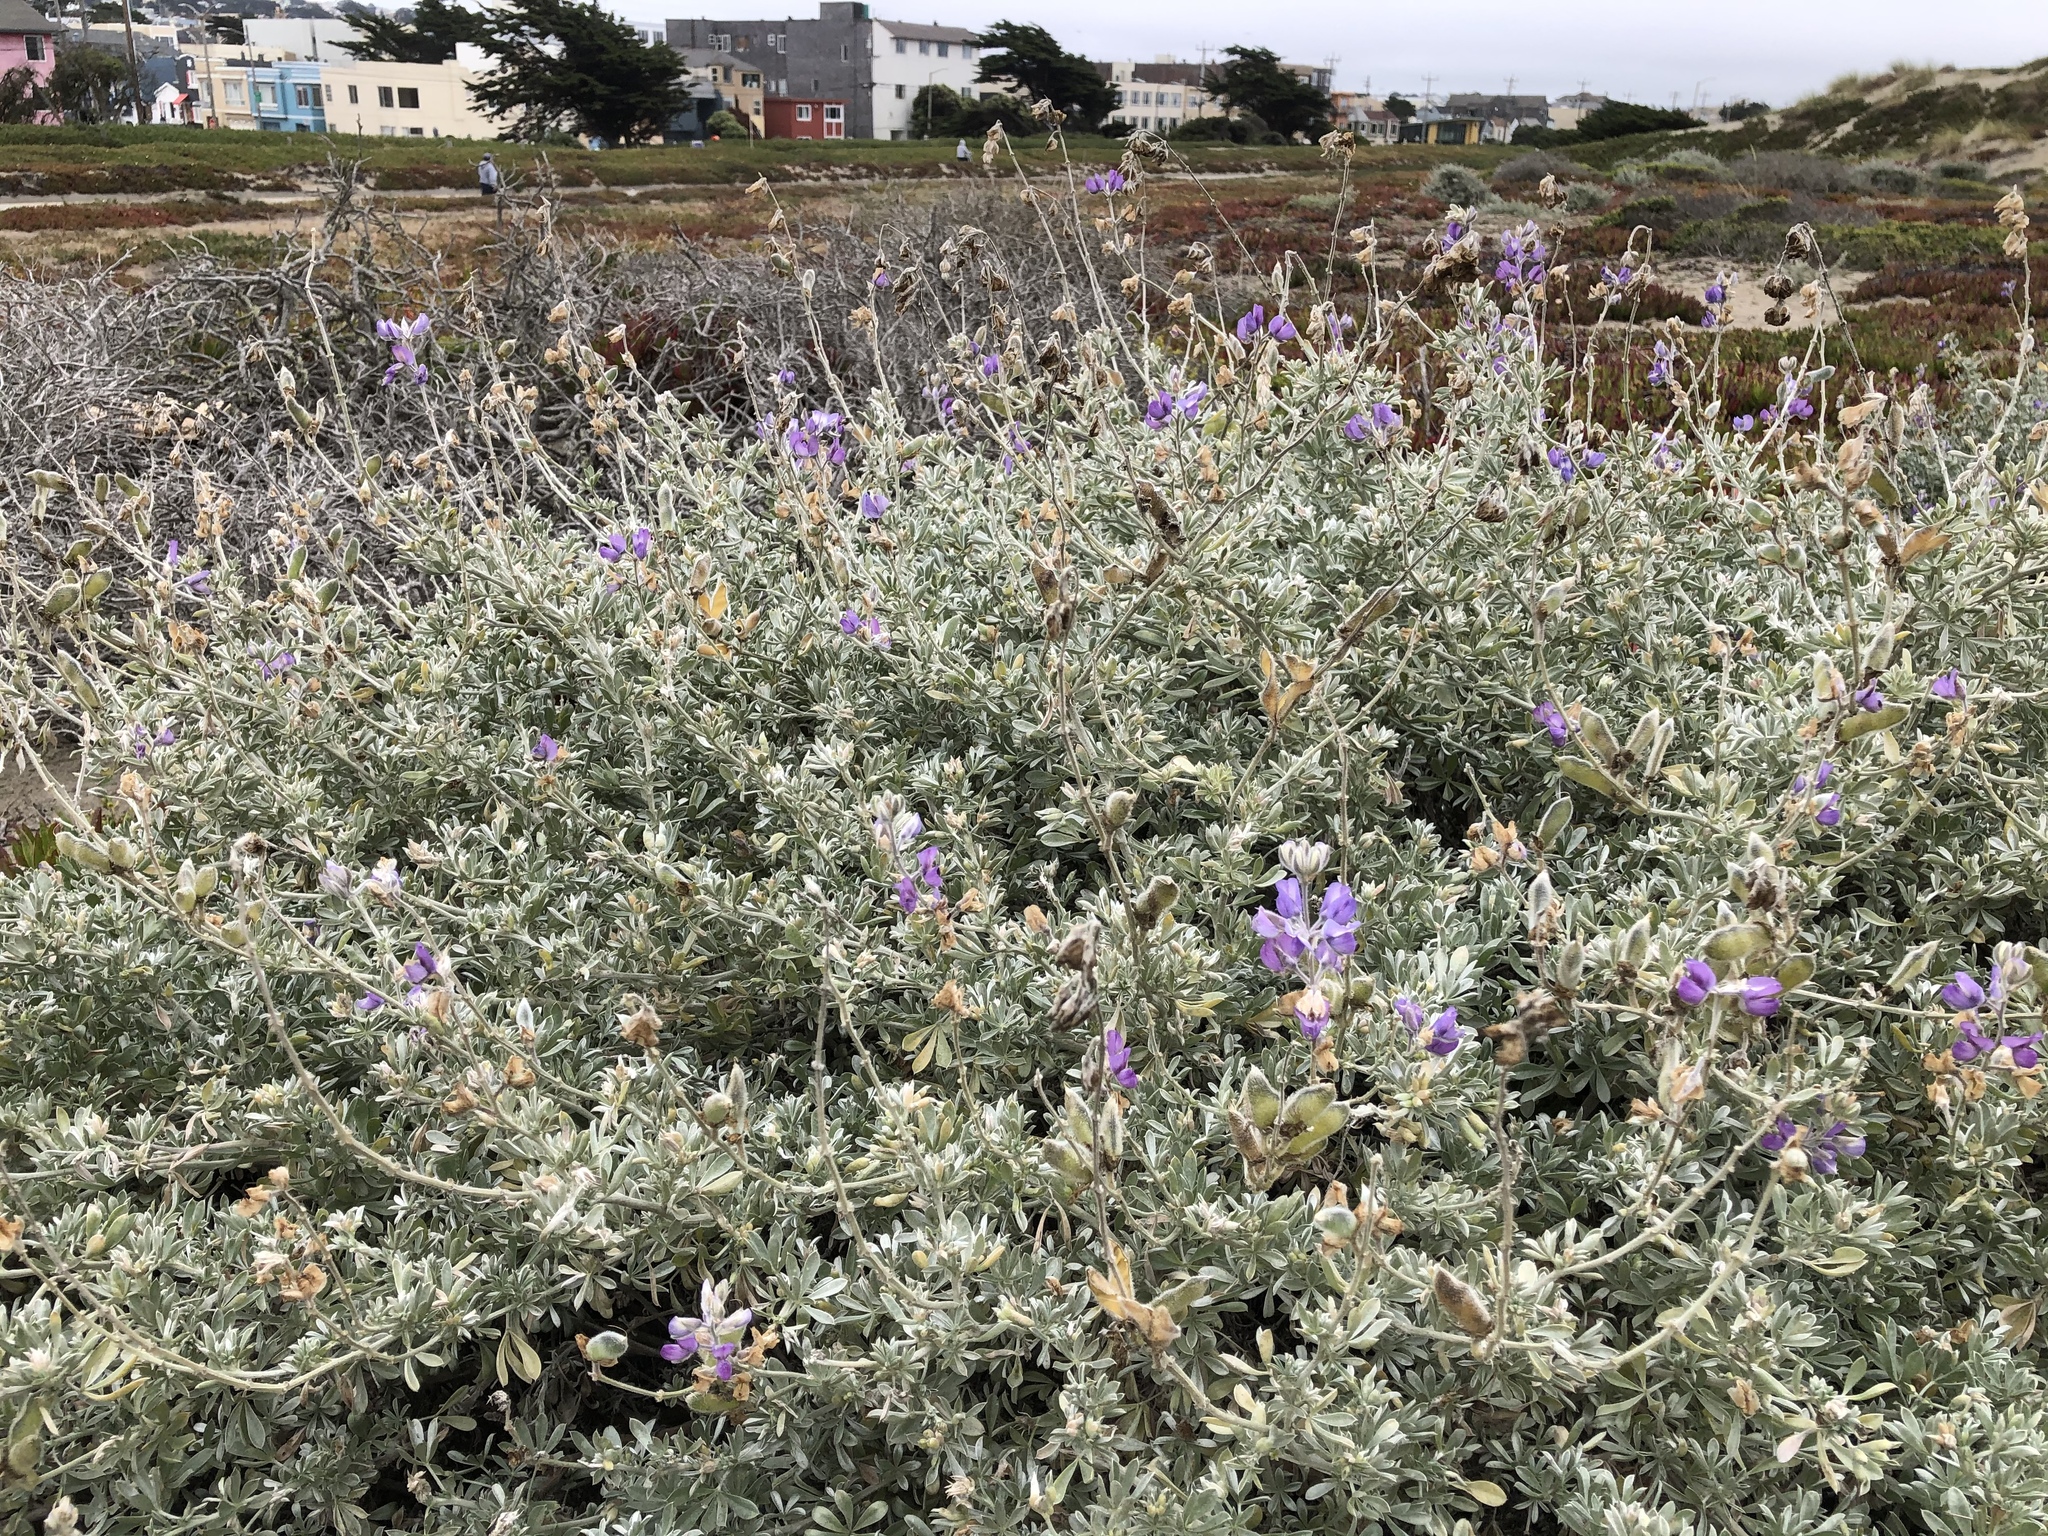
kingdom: Plantae
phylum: Tracheophyta
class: Magnoliopsida
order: Fabales
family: Fabaceae
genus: Lupinus
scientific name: Lupinus chamissonis
